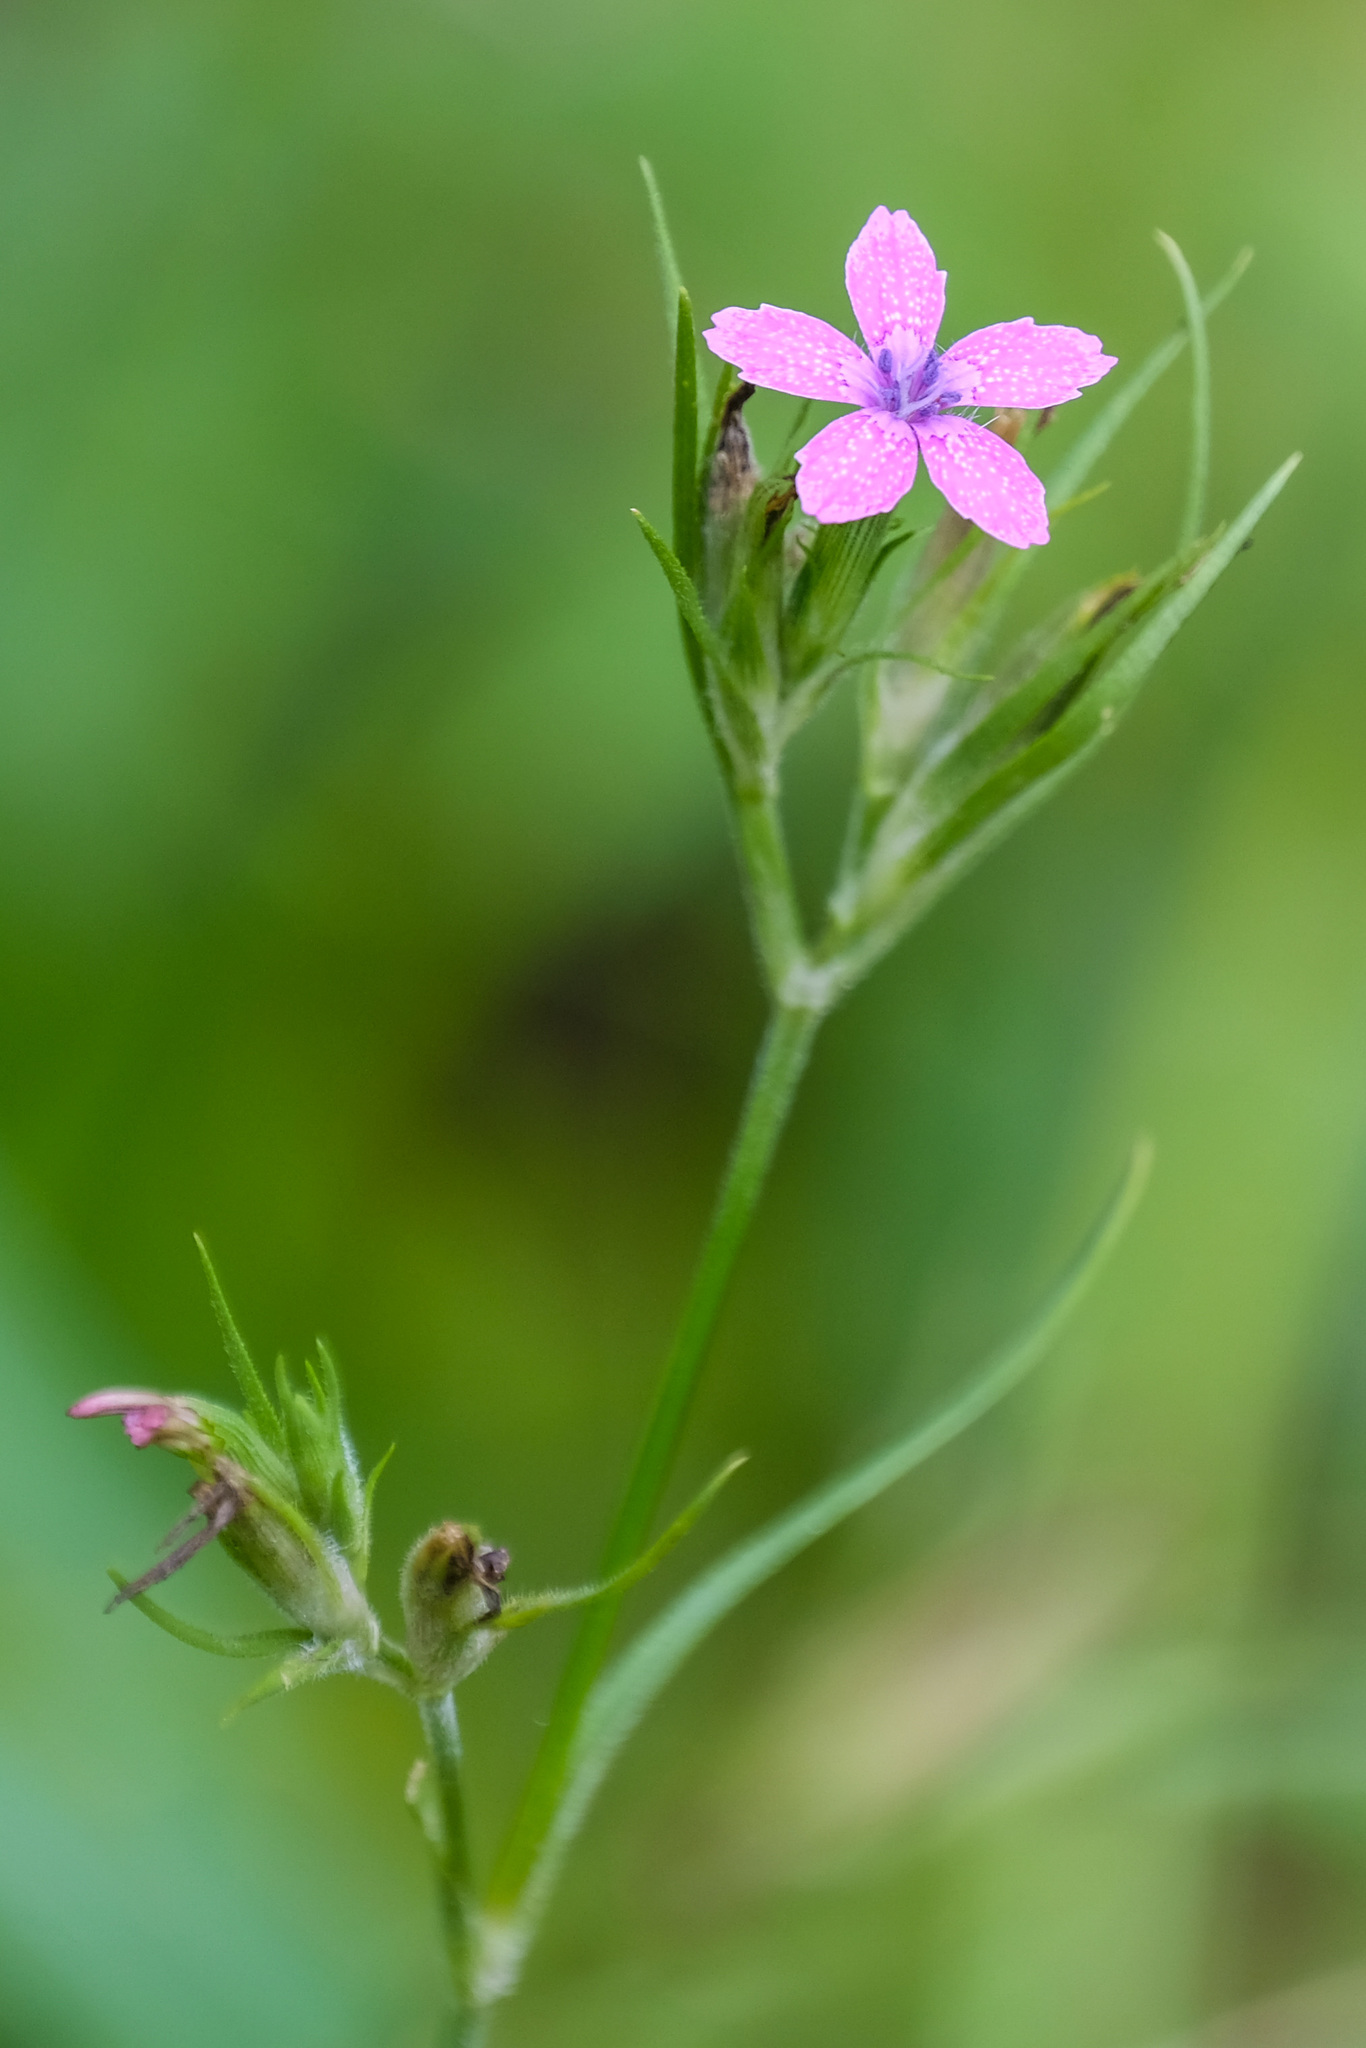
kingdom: Plantae
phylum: Tracheophyta
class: Magnoliopsida
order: Caryophyllales
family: Caryophyllaceae
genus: Dianthus
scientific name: Dianthus armeria
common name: Deptford pink
